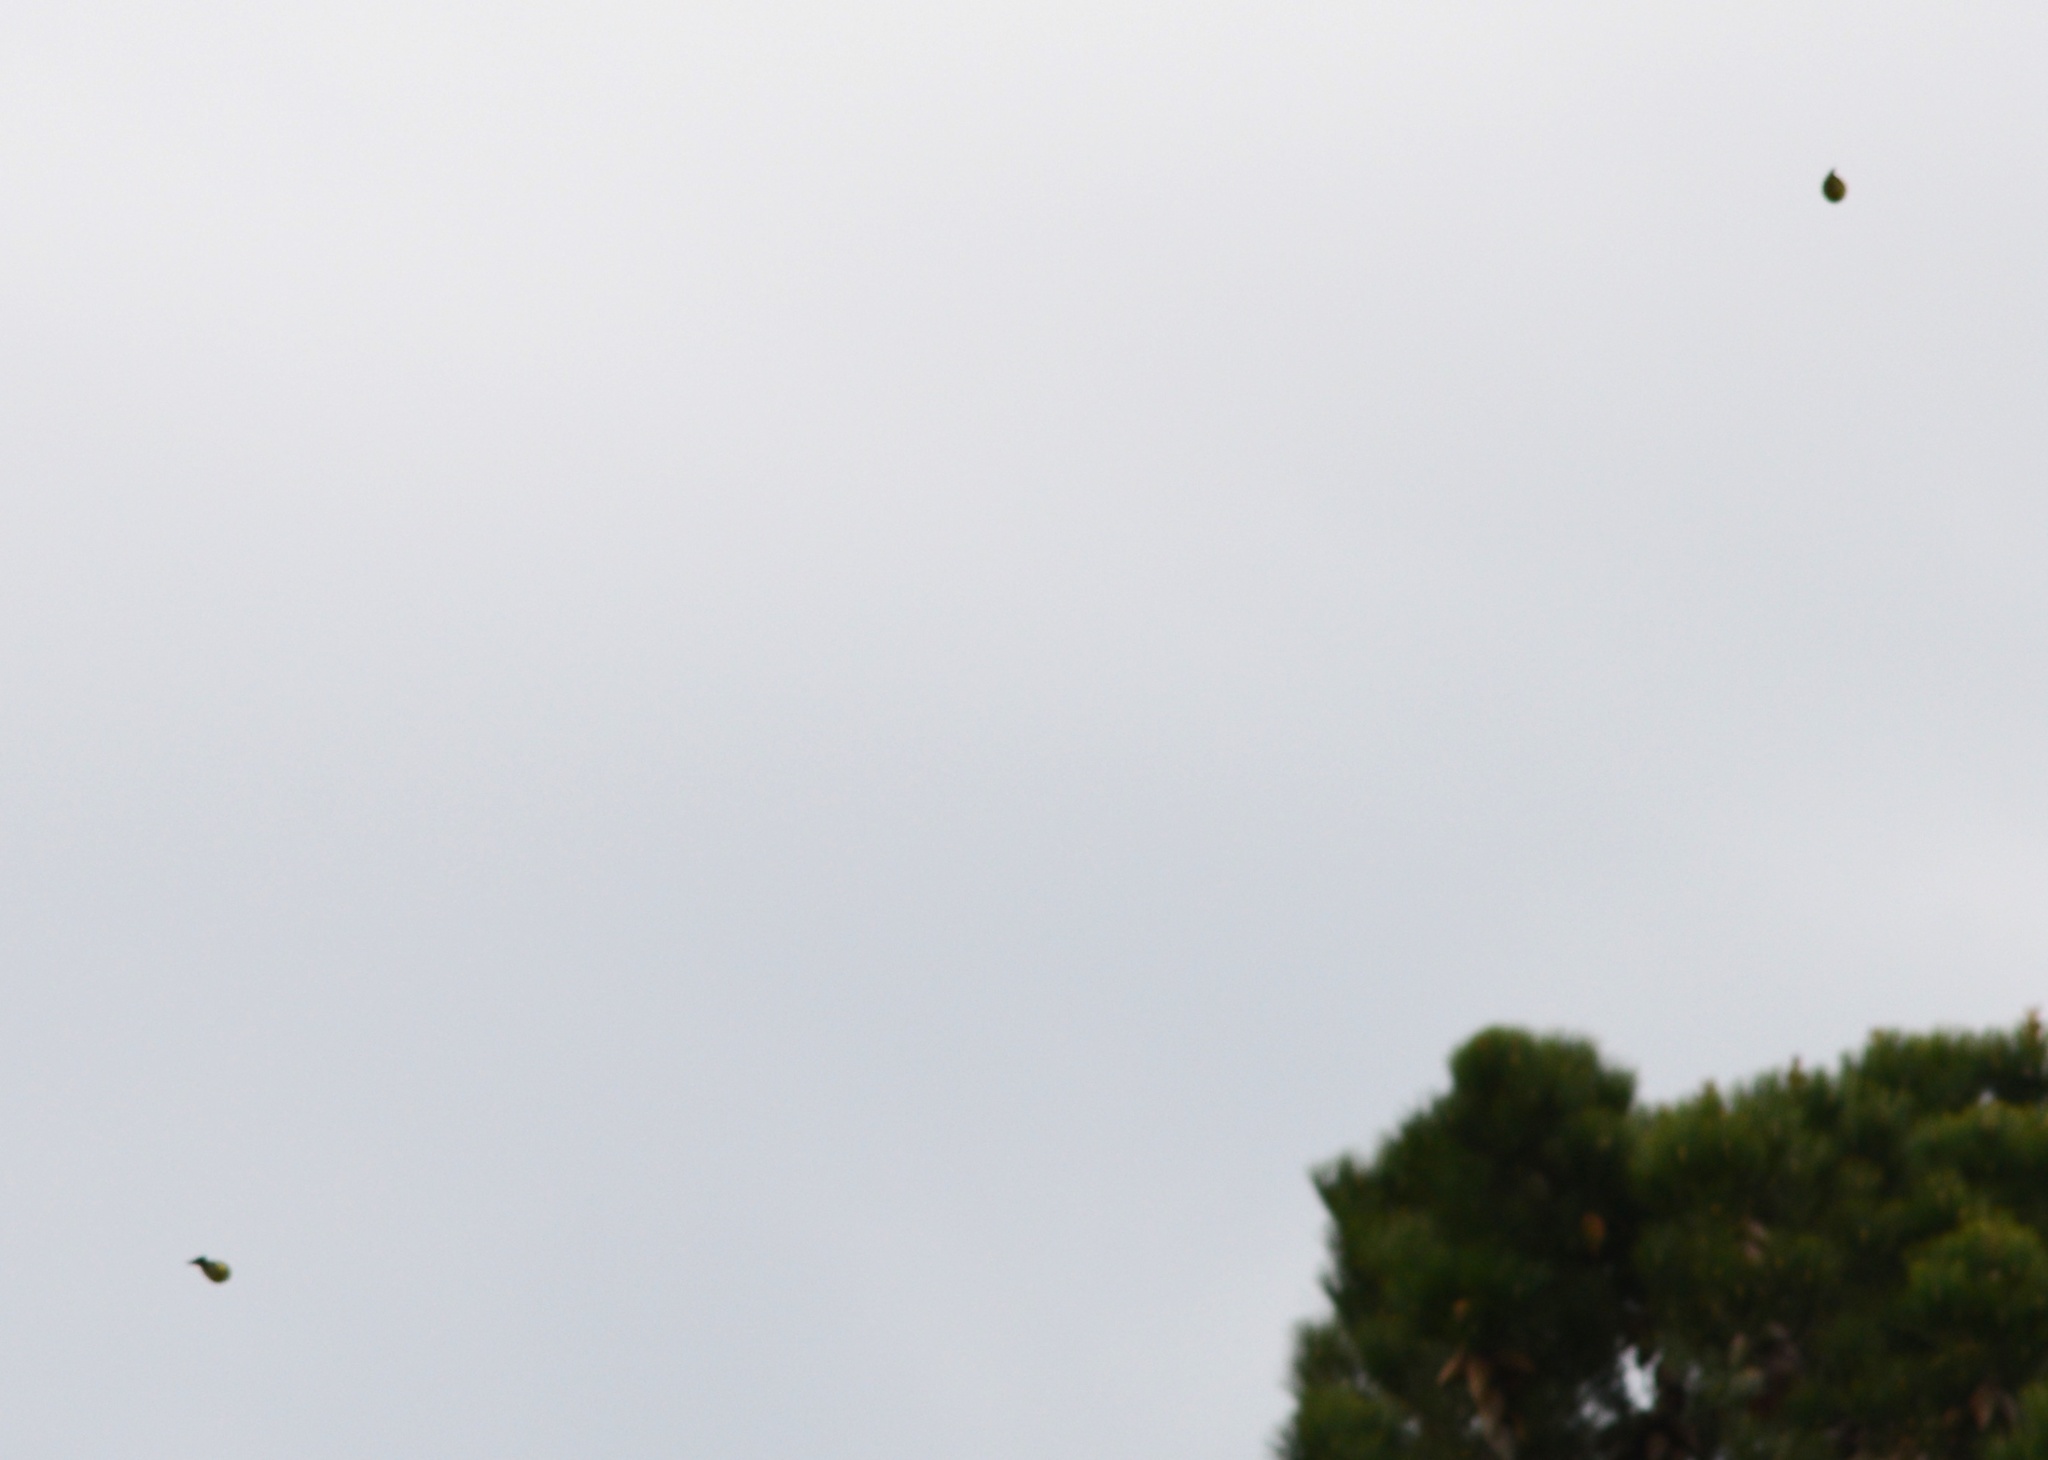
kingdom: Plantae
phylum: Tracheophyta
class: Liliopsida
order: Poales
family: Poaceae
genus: Chloris
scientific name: Chloris chloris
